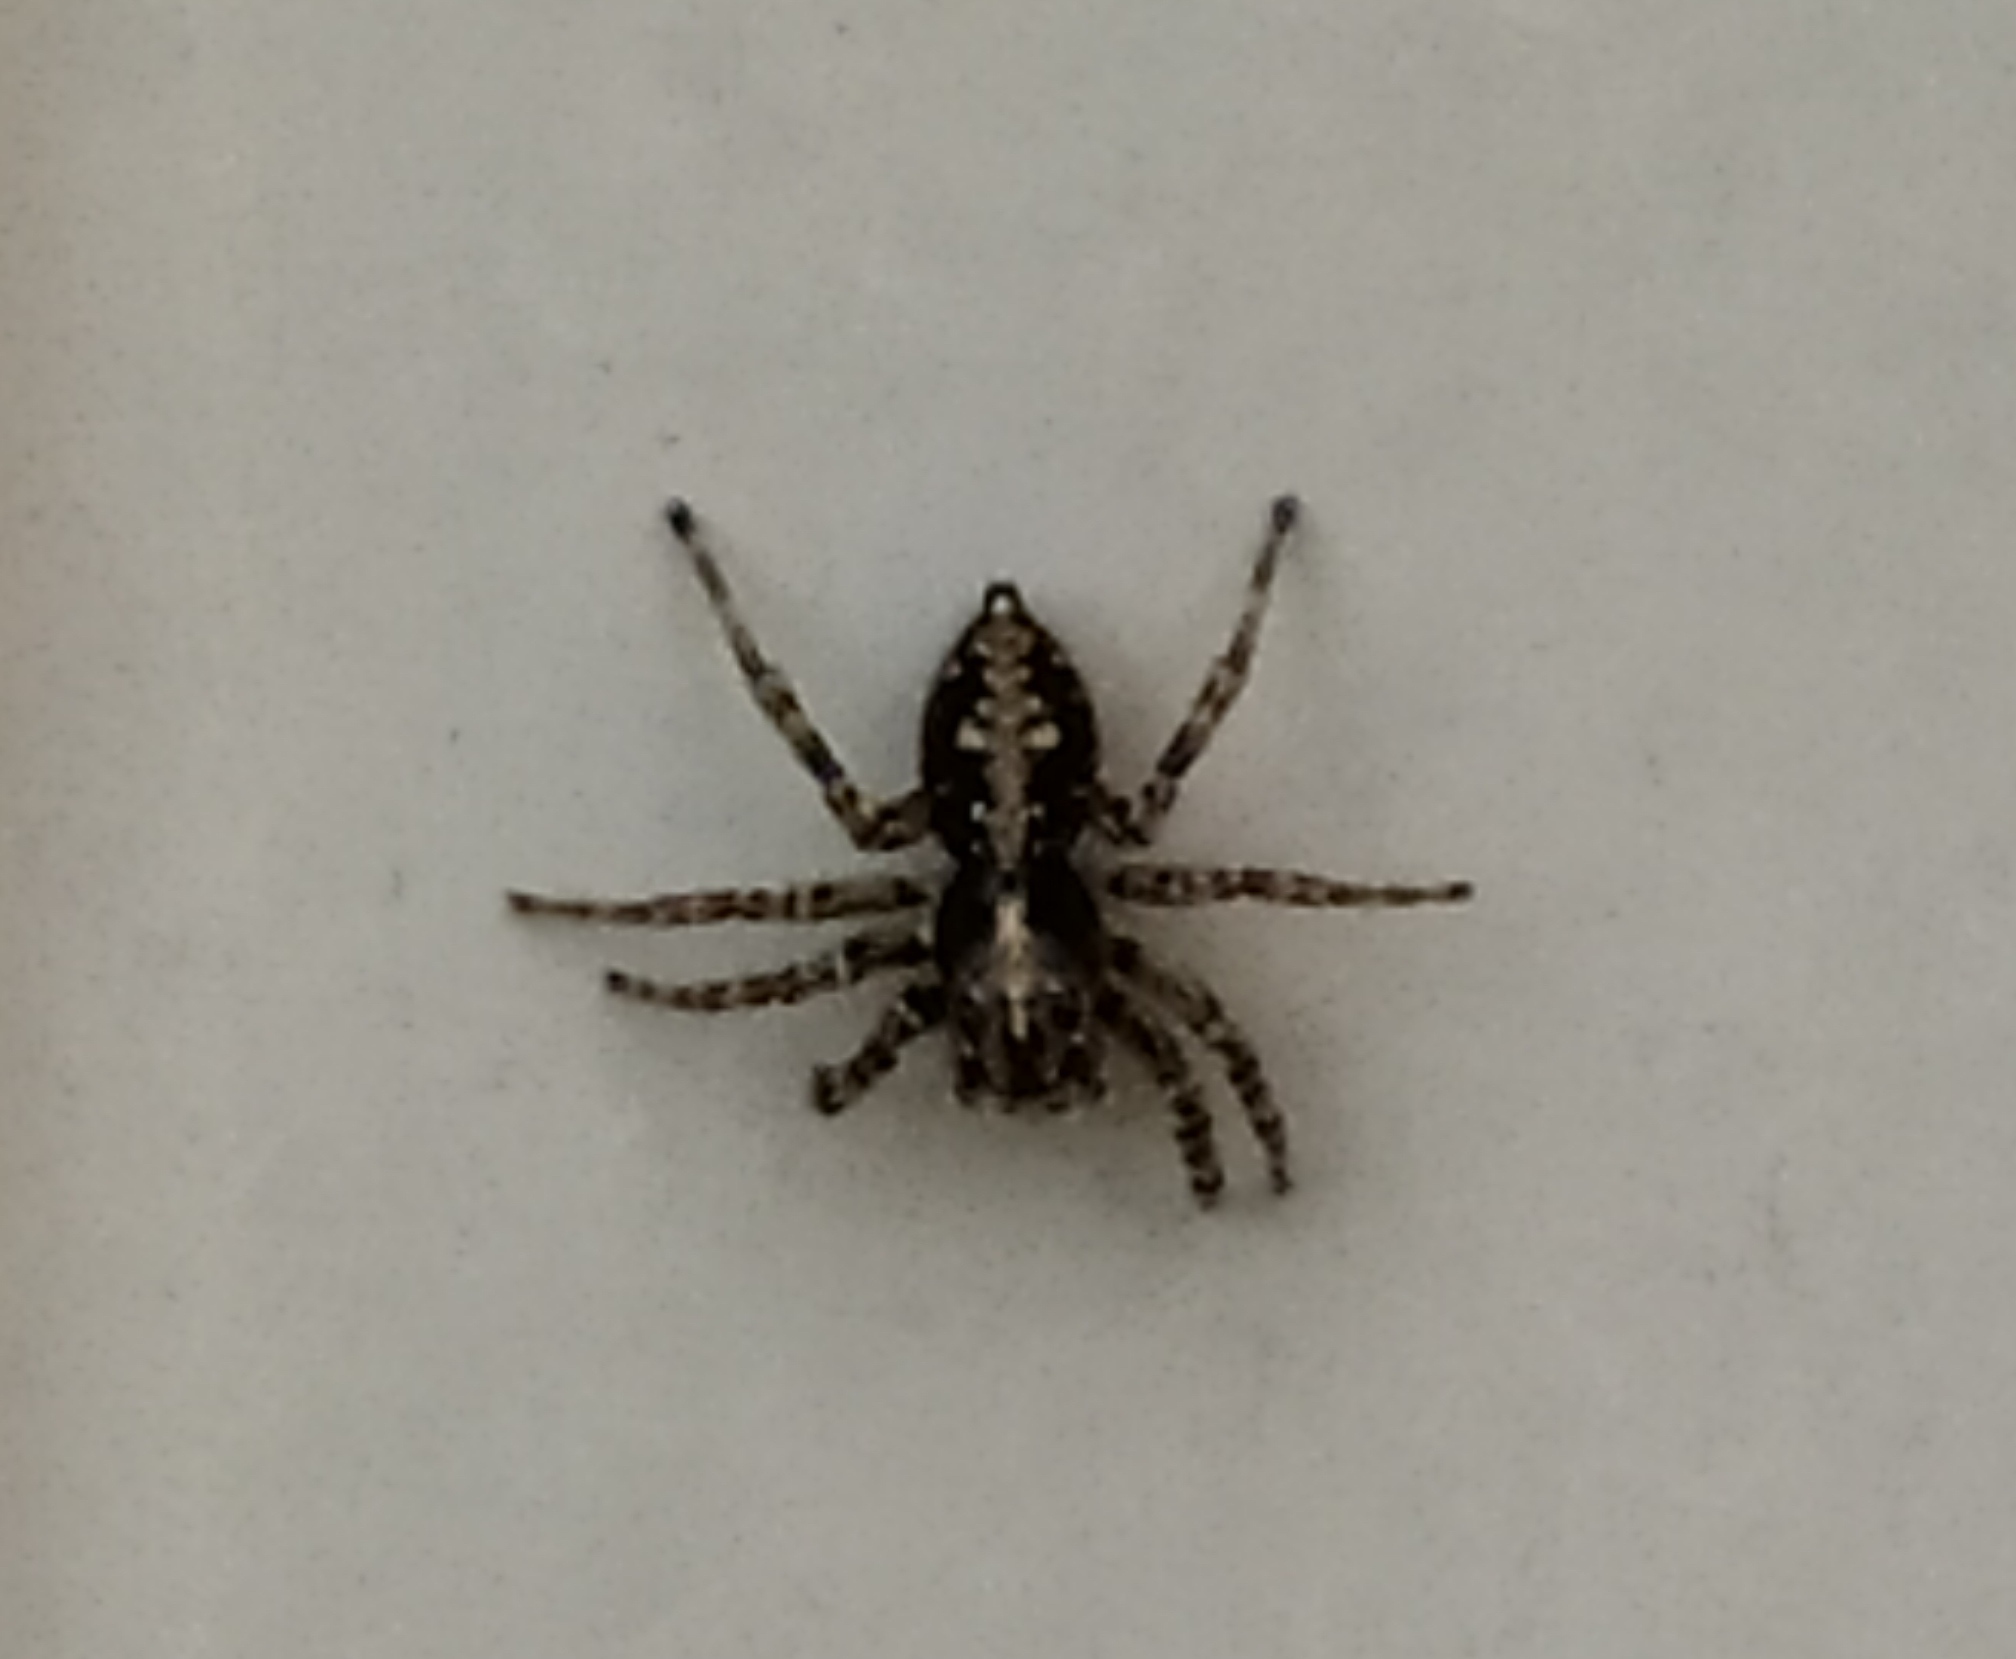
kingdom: Animalia
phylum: Arthropoda
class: Arachnida
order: Araneae
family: Salticidae
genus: Attulus
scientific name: Attulus terebratus
